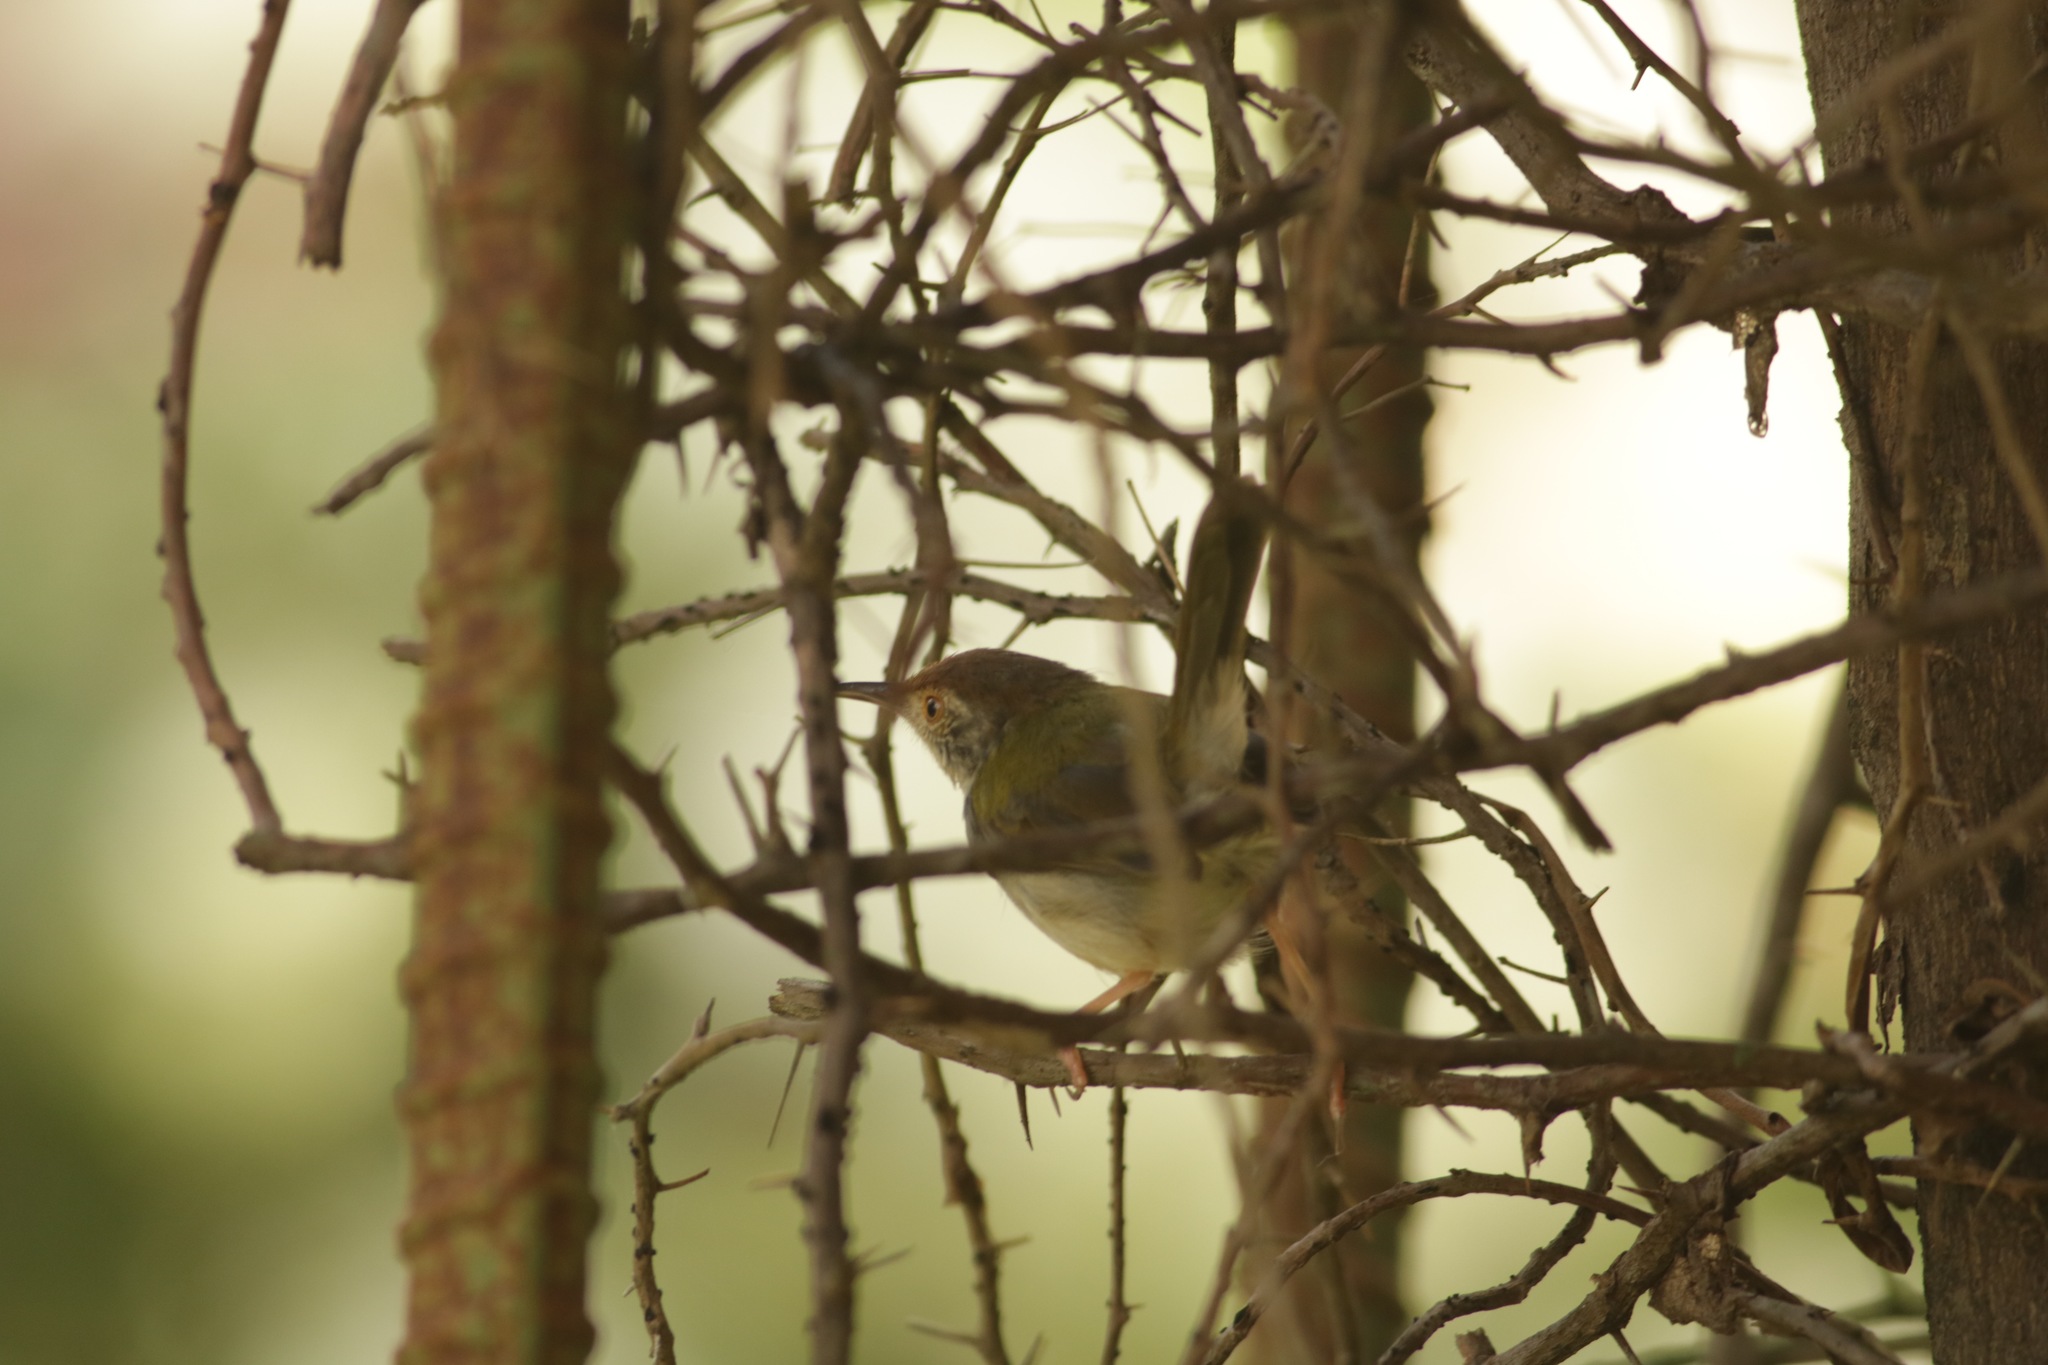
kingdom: Animalia
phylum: Chordata
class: Aves
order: Passeriformes
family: Cisticolidae
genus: Orthotomus
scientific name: Orthotomus sutorius
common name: Common tailorbird
